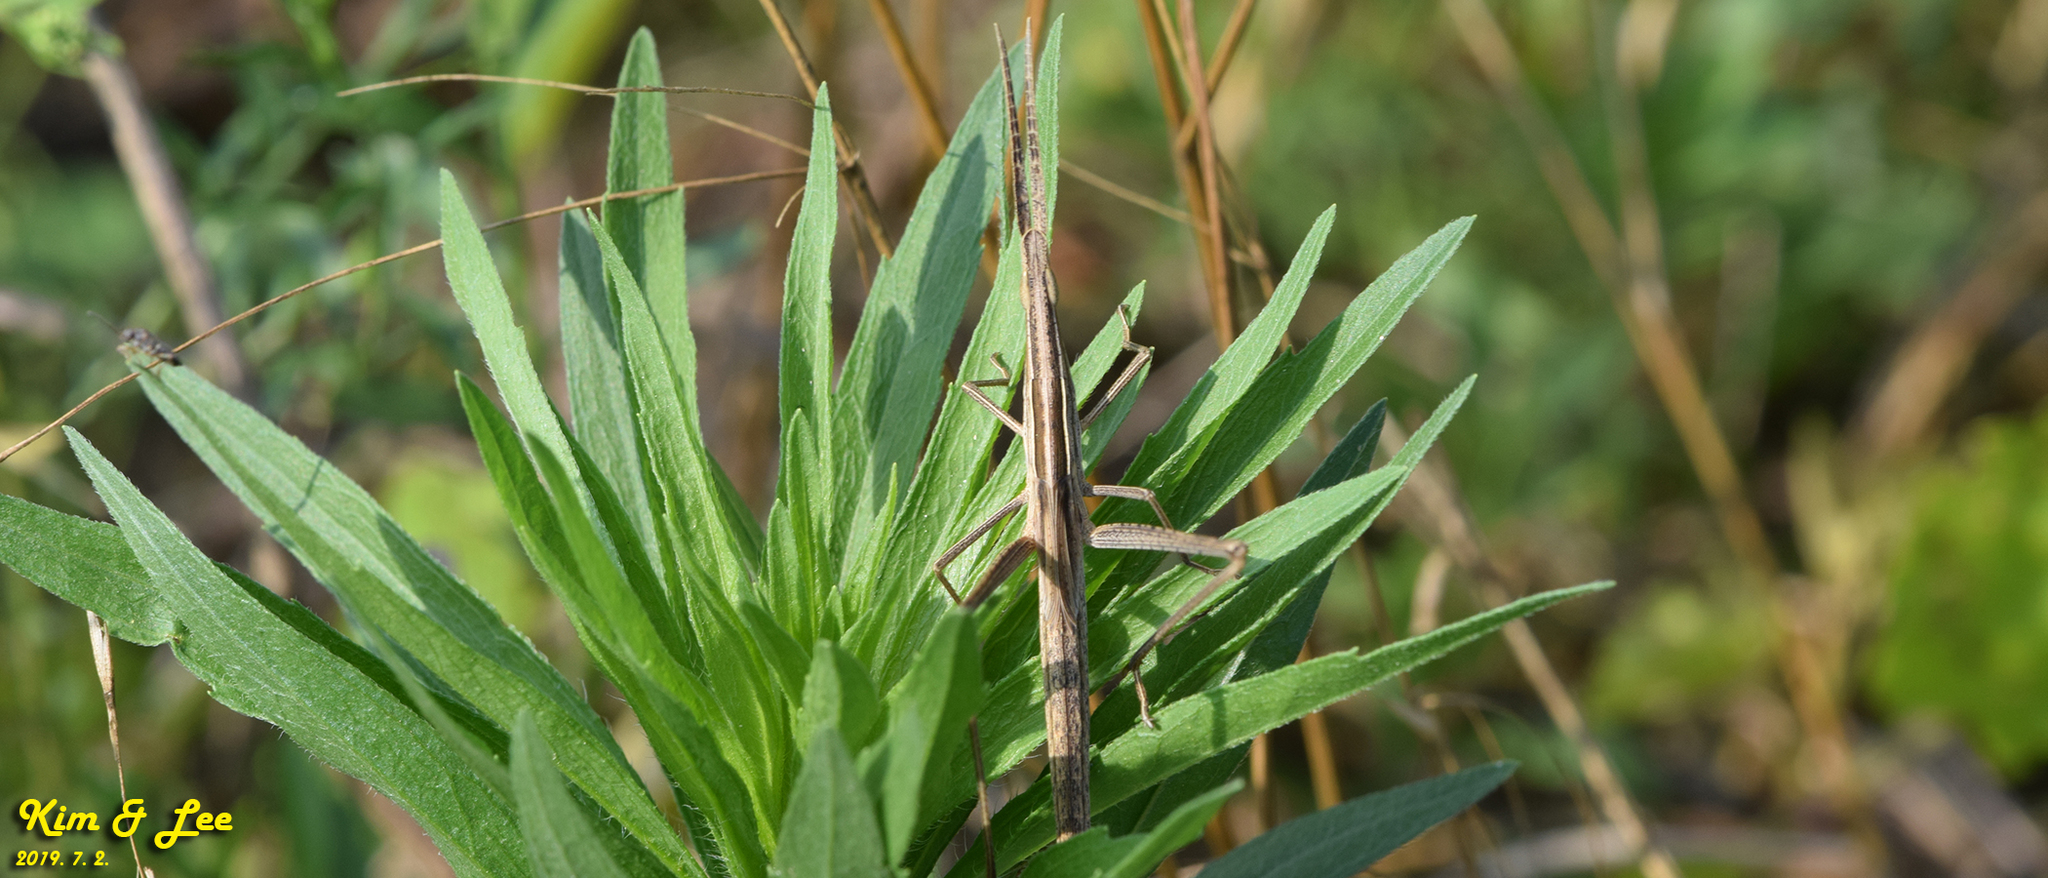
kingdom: Animalia
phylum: Arthropoda
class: Insecta
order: Orthoptera
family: Acrididae
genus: Acrida
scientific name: Acrida cinerea
